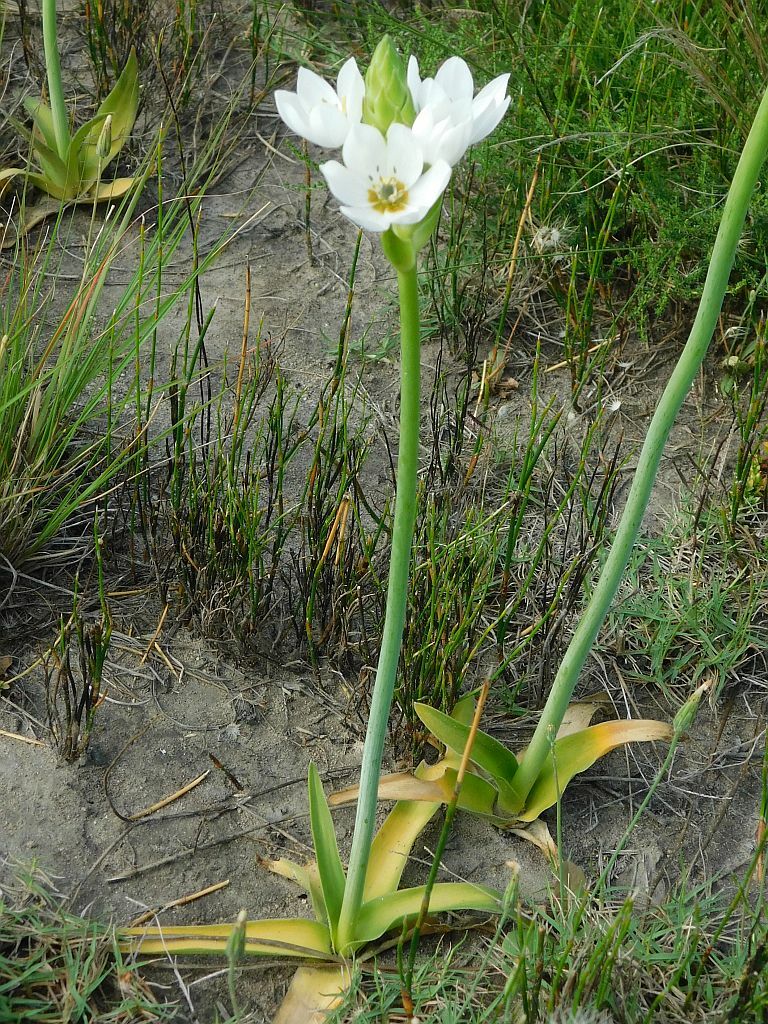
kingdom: Plantae
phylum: Tracheophyta
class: Liliopsida
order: Asparagales
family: Asparagaceae
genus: Ornithogalum
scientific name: Ornithogalum thyrsoides
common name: Chincherinchee
